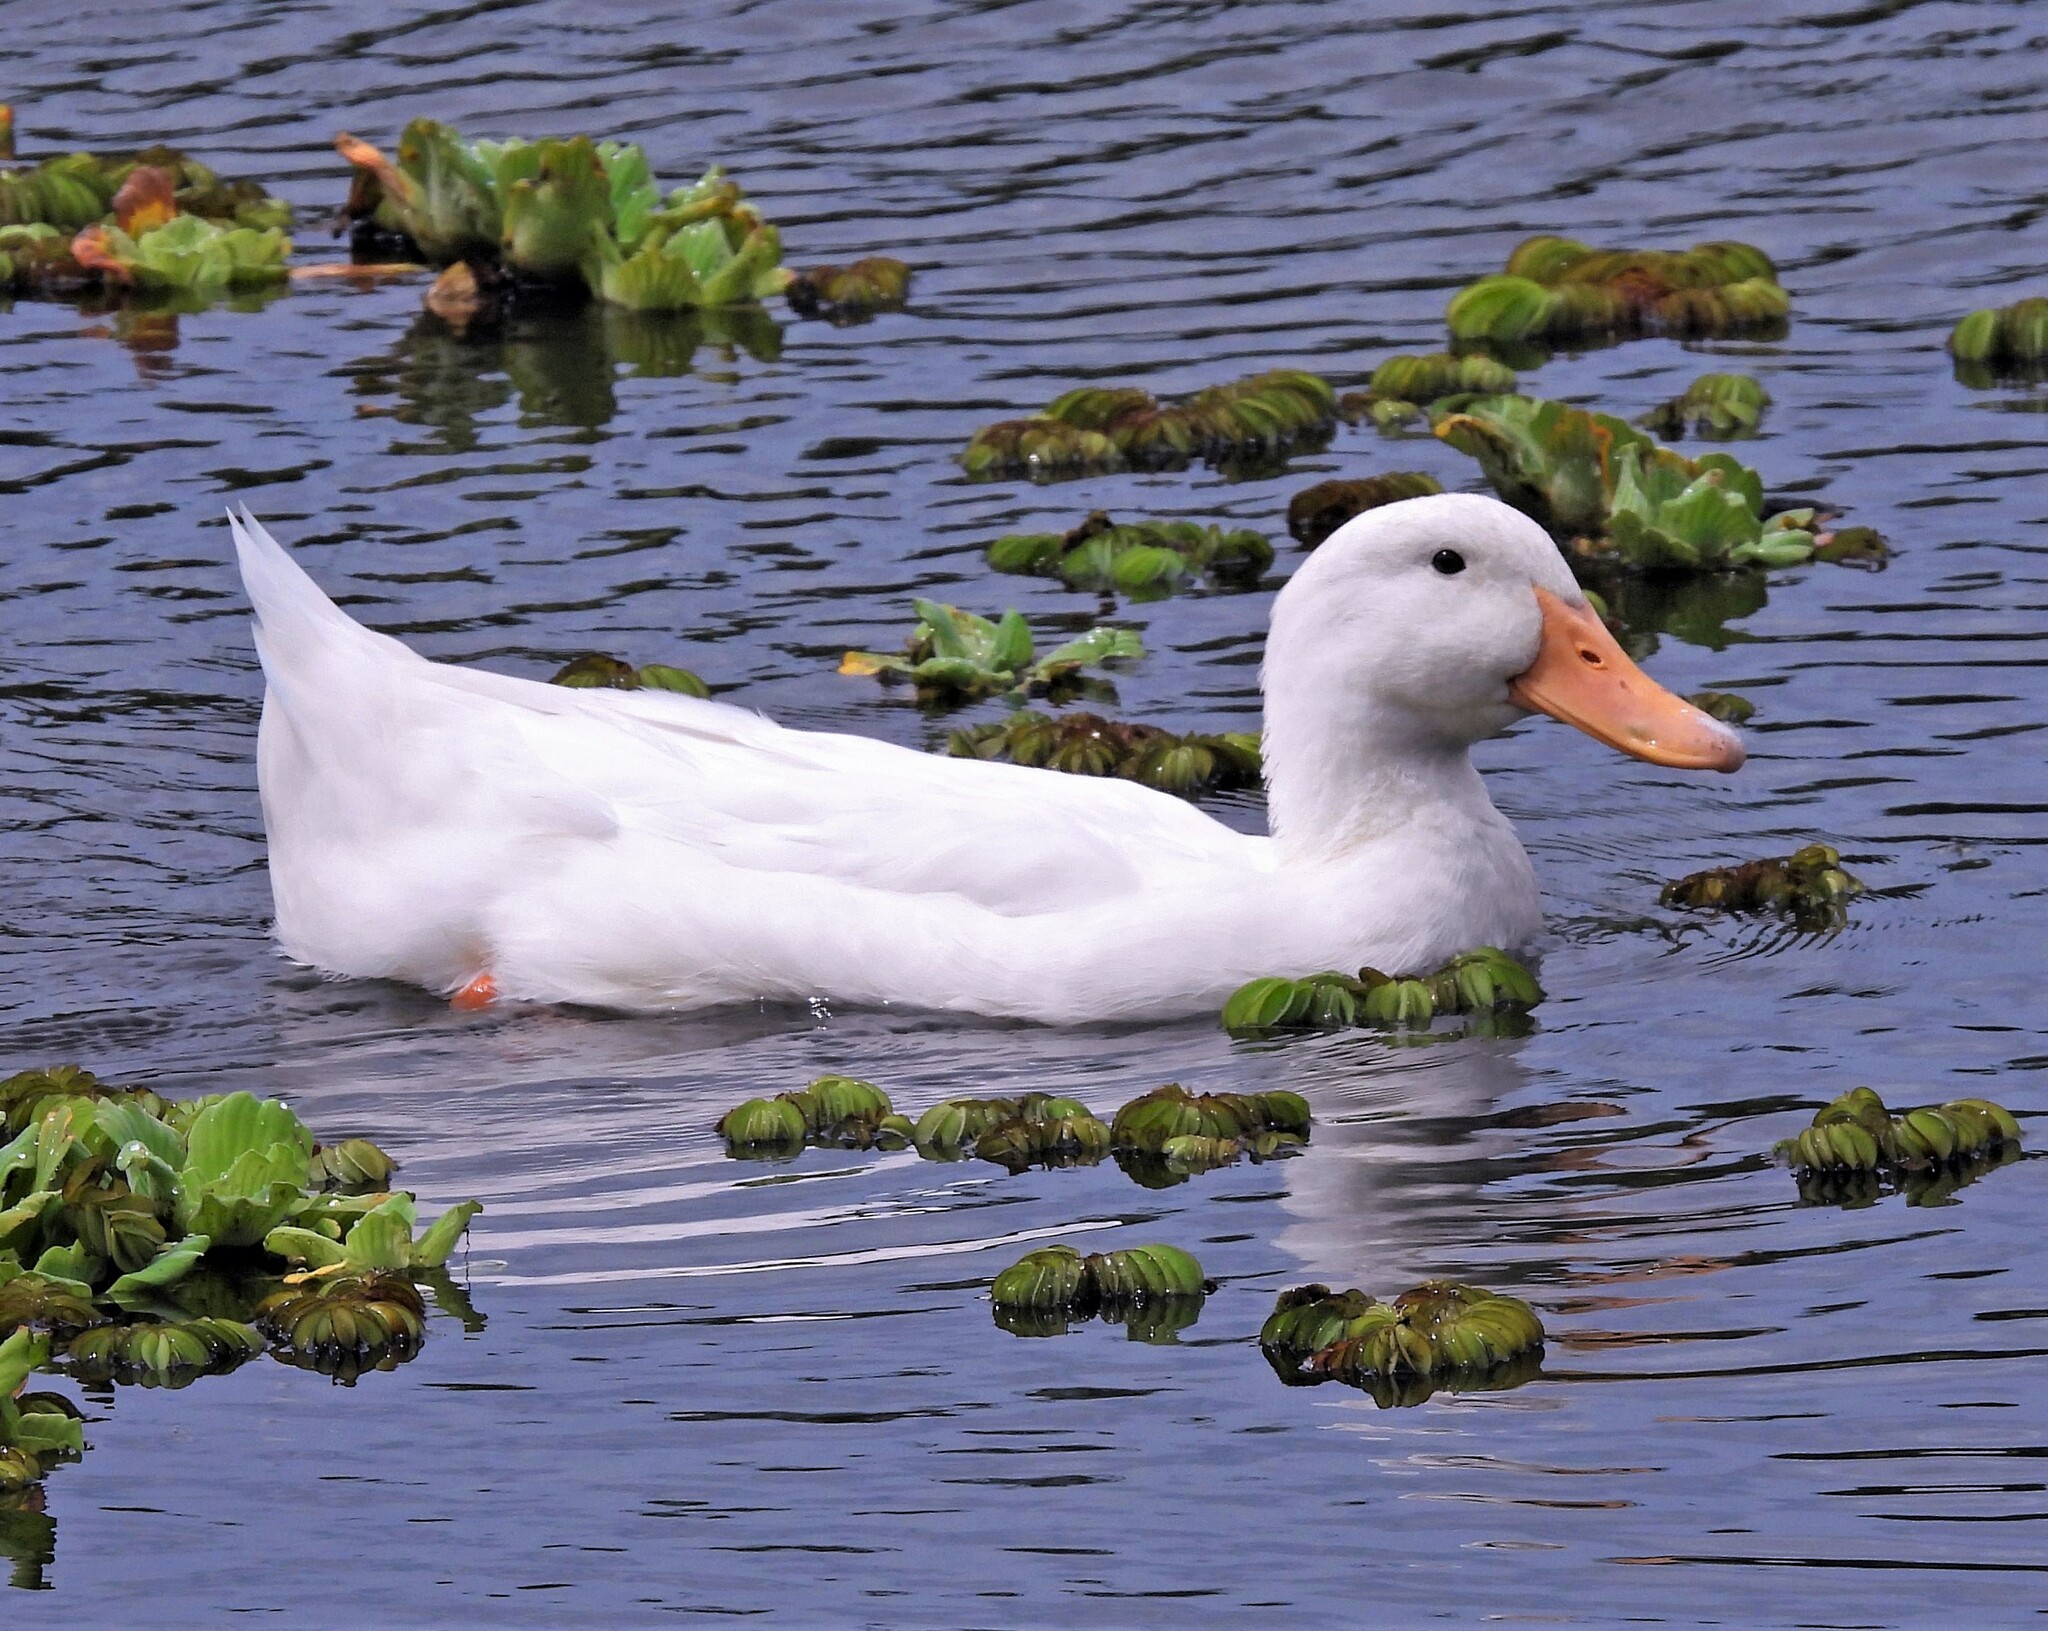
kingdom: Animalia
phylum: Chordata
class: Aves
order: Anseriformes
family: Anatidae
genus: Anas
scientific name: Anas platyrhynchos
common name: Mallard
